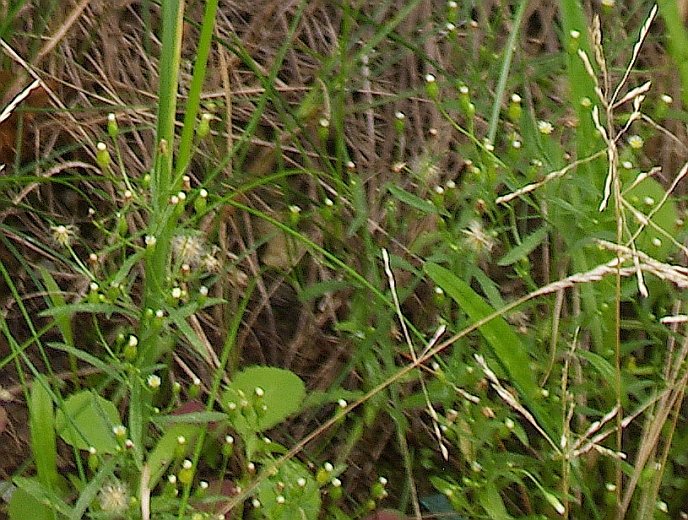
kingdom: Plantae
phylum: Tracheophyta
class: Magnoliopsida
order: Asterales
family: Asteraceae
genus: Erigeron
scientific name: Erigeron canadensis
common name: Canadian fleabane
